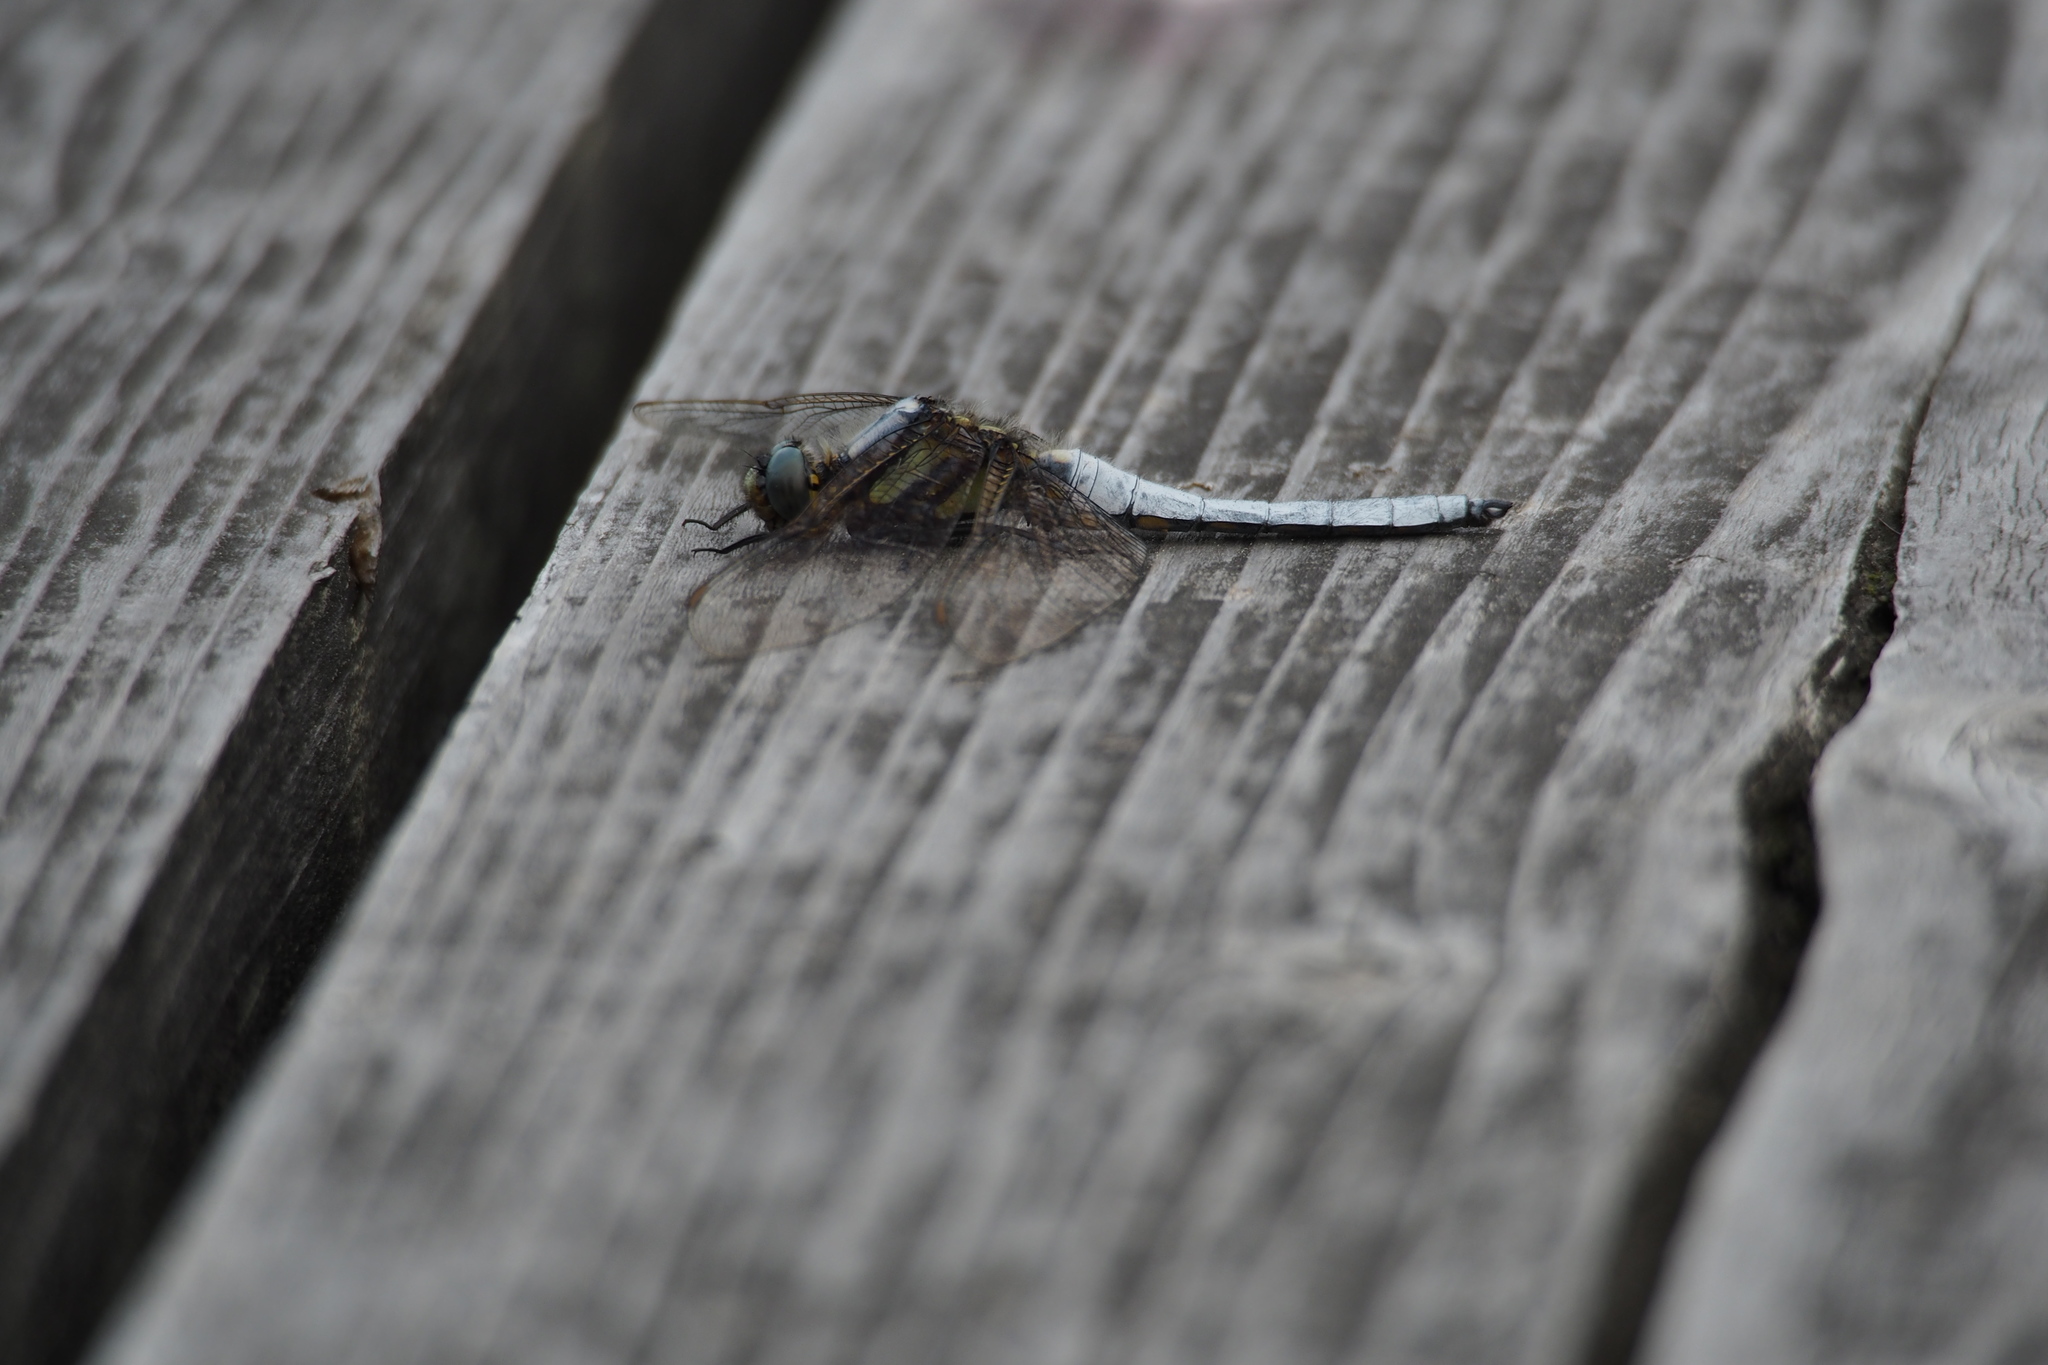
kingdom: Animalia
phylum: Arthropoda
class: Insecta
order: Odonata
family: Libellulidae
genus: Orthetrum
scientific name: Orthetrum japonicum
